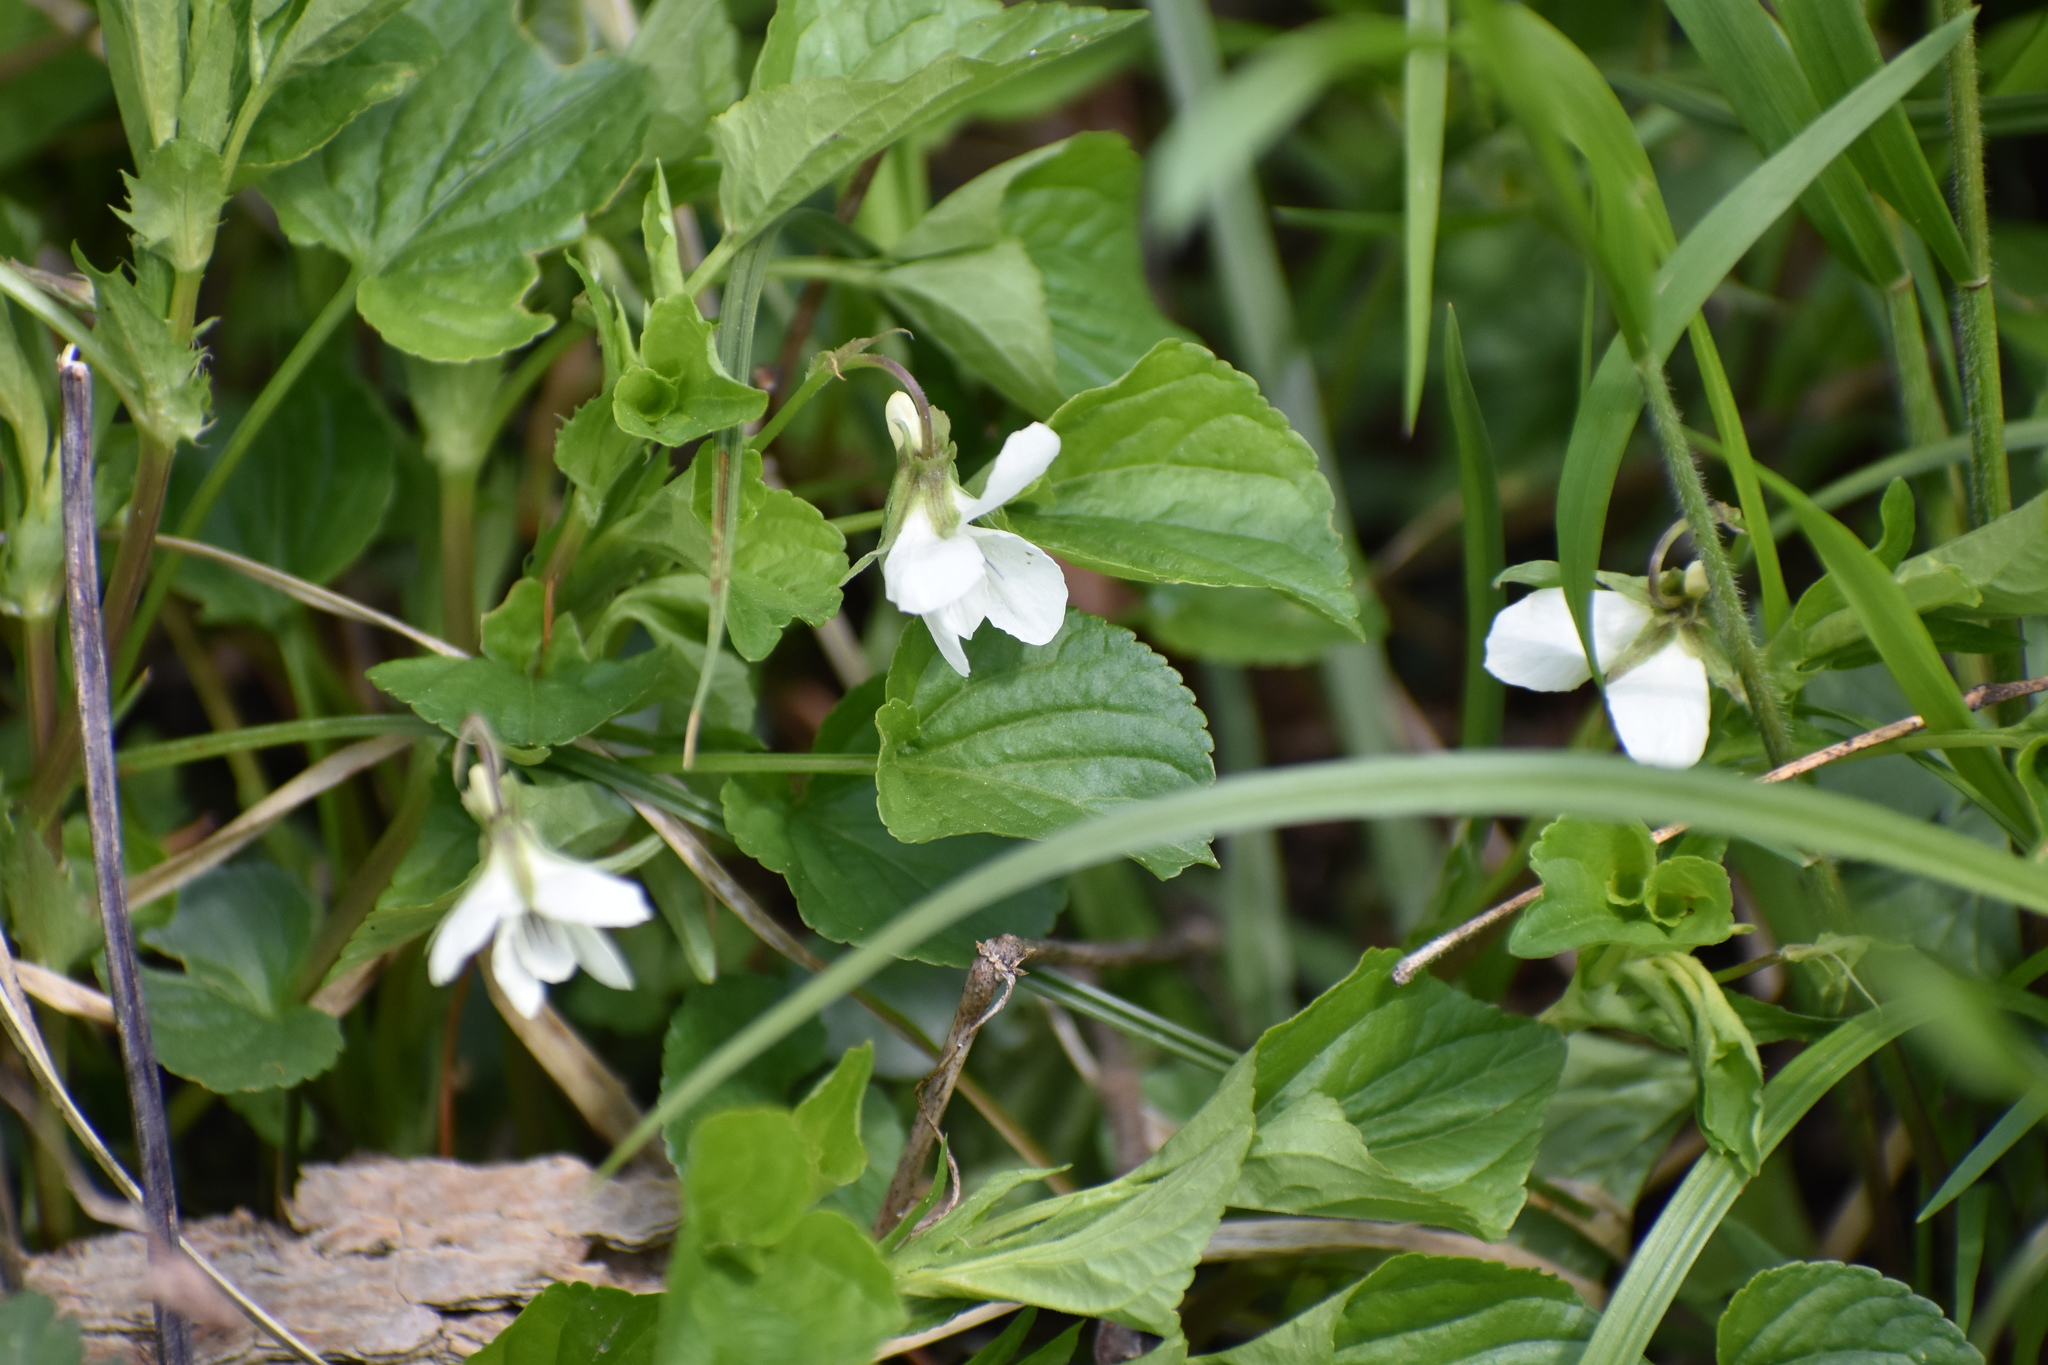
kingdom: Plantae
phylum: Tracheophyta
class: Magnoliopsida
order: Malpighiales
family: Violaceae
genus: Viola
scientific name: Viola striata
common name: Cream violet
